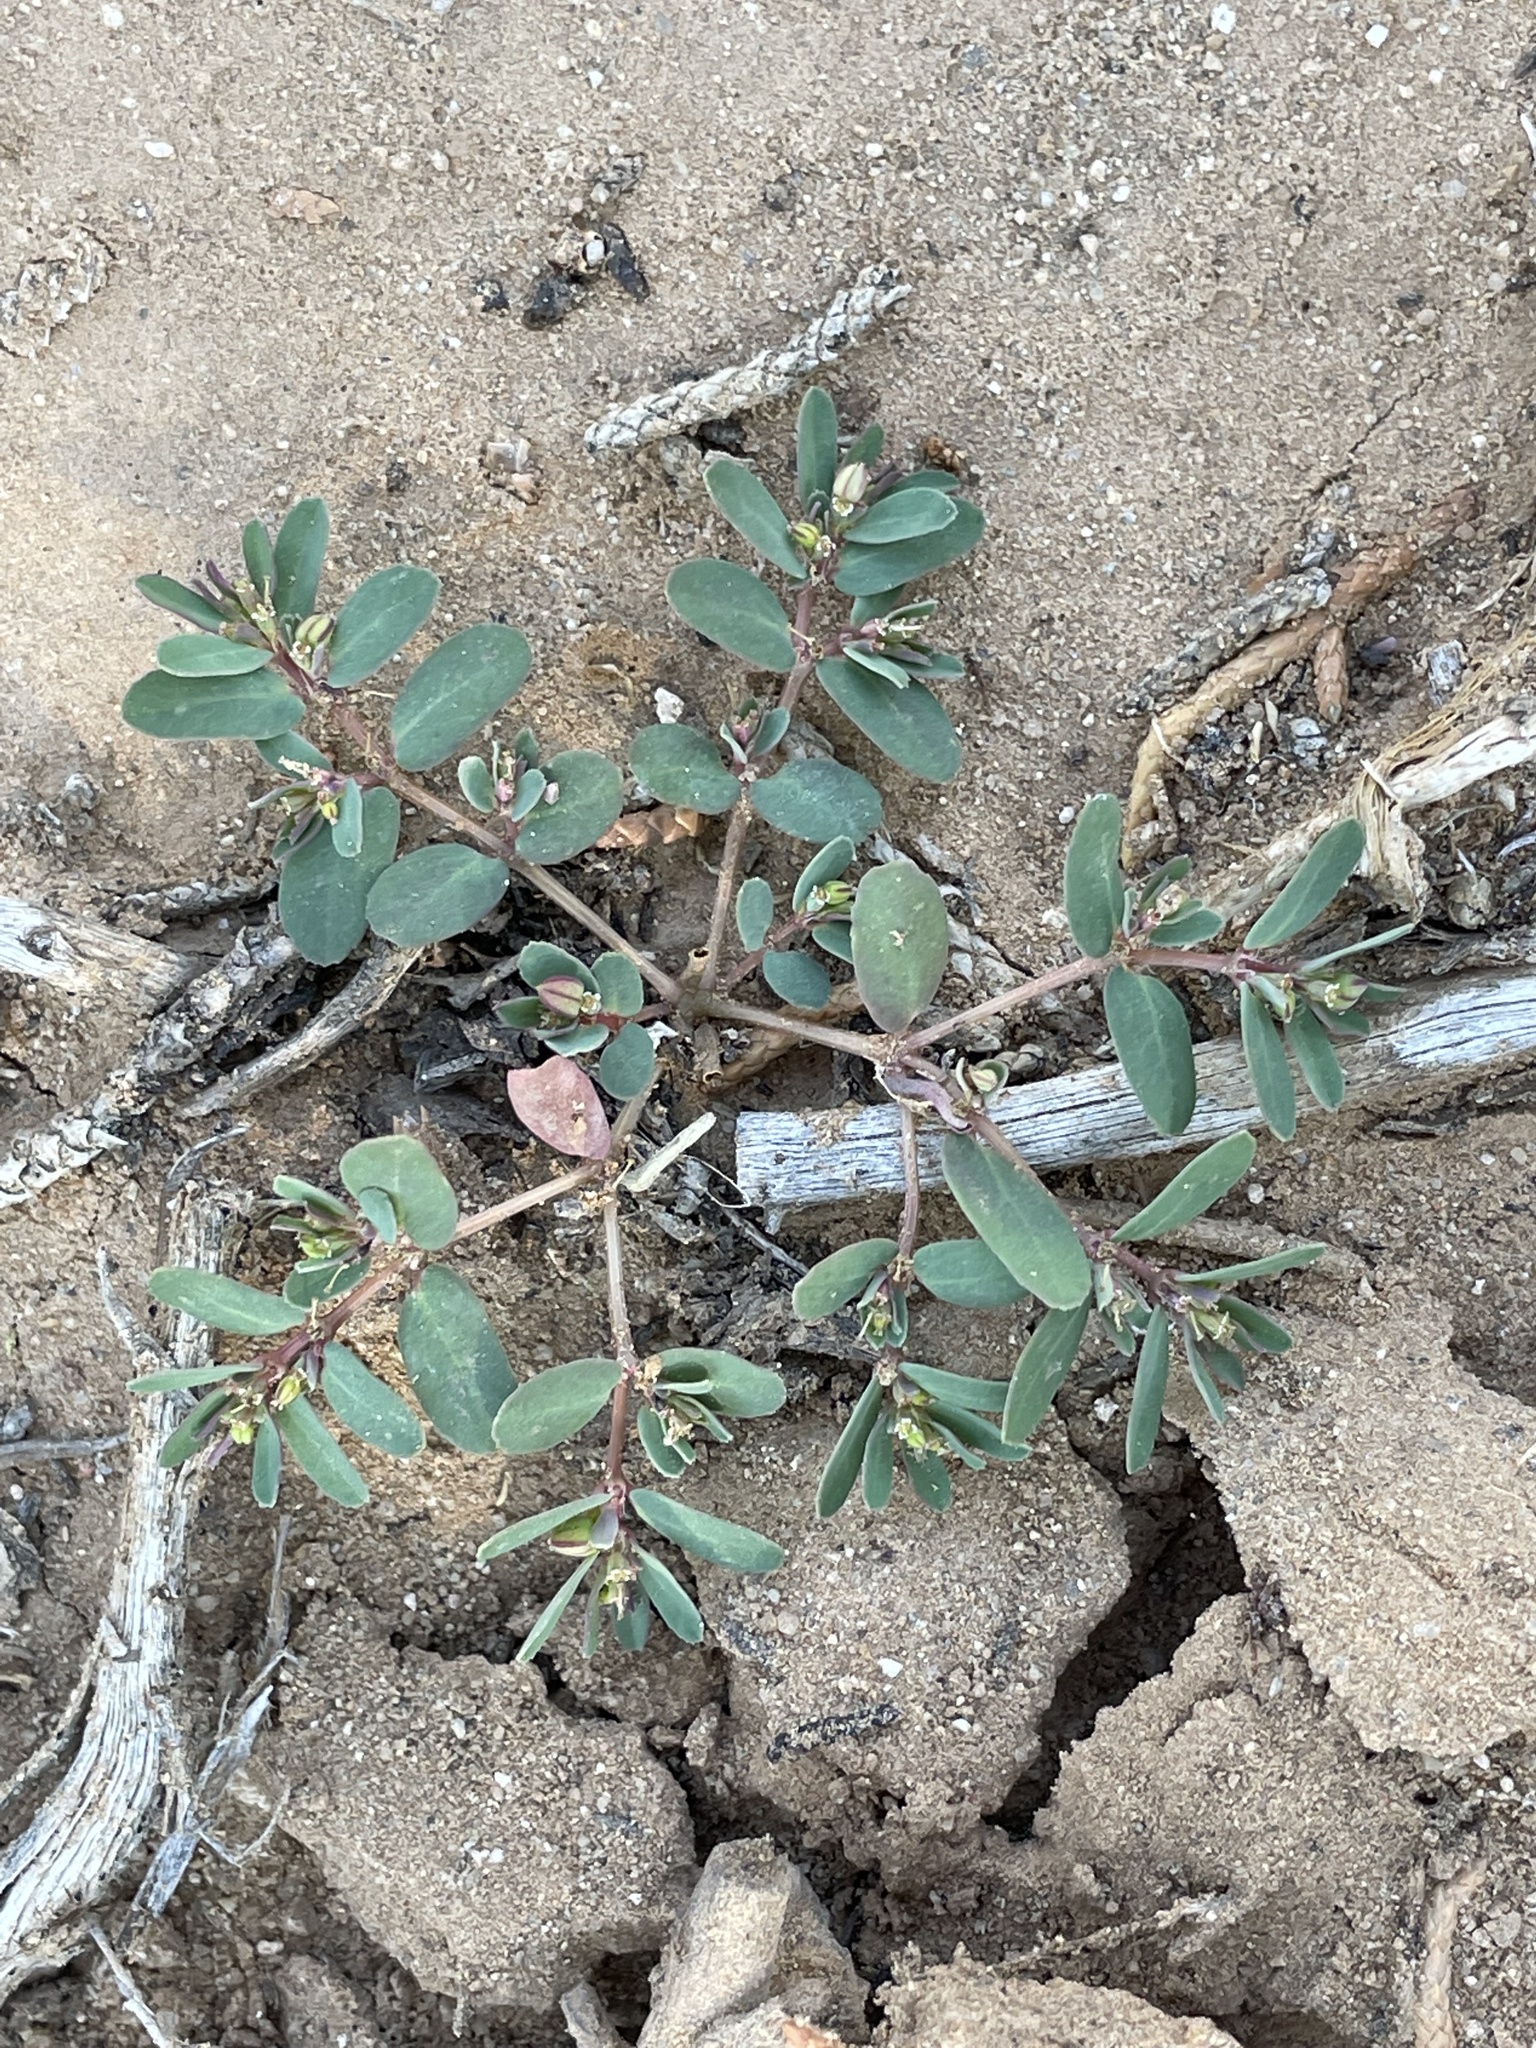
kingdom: Plantae
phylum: Tracheophyta
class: Magnoliopsida
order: Malpighiales
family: Euphorbiaceae
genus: Euphorbia
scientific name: Euphorbia serpillifolia
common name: Thyme-leaf spurge
